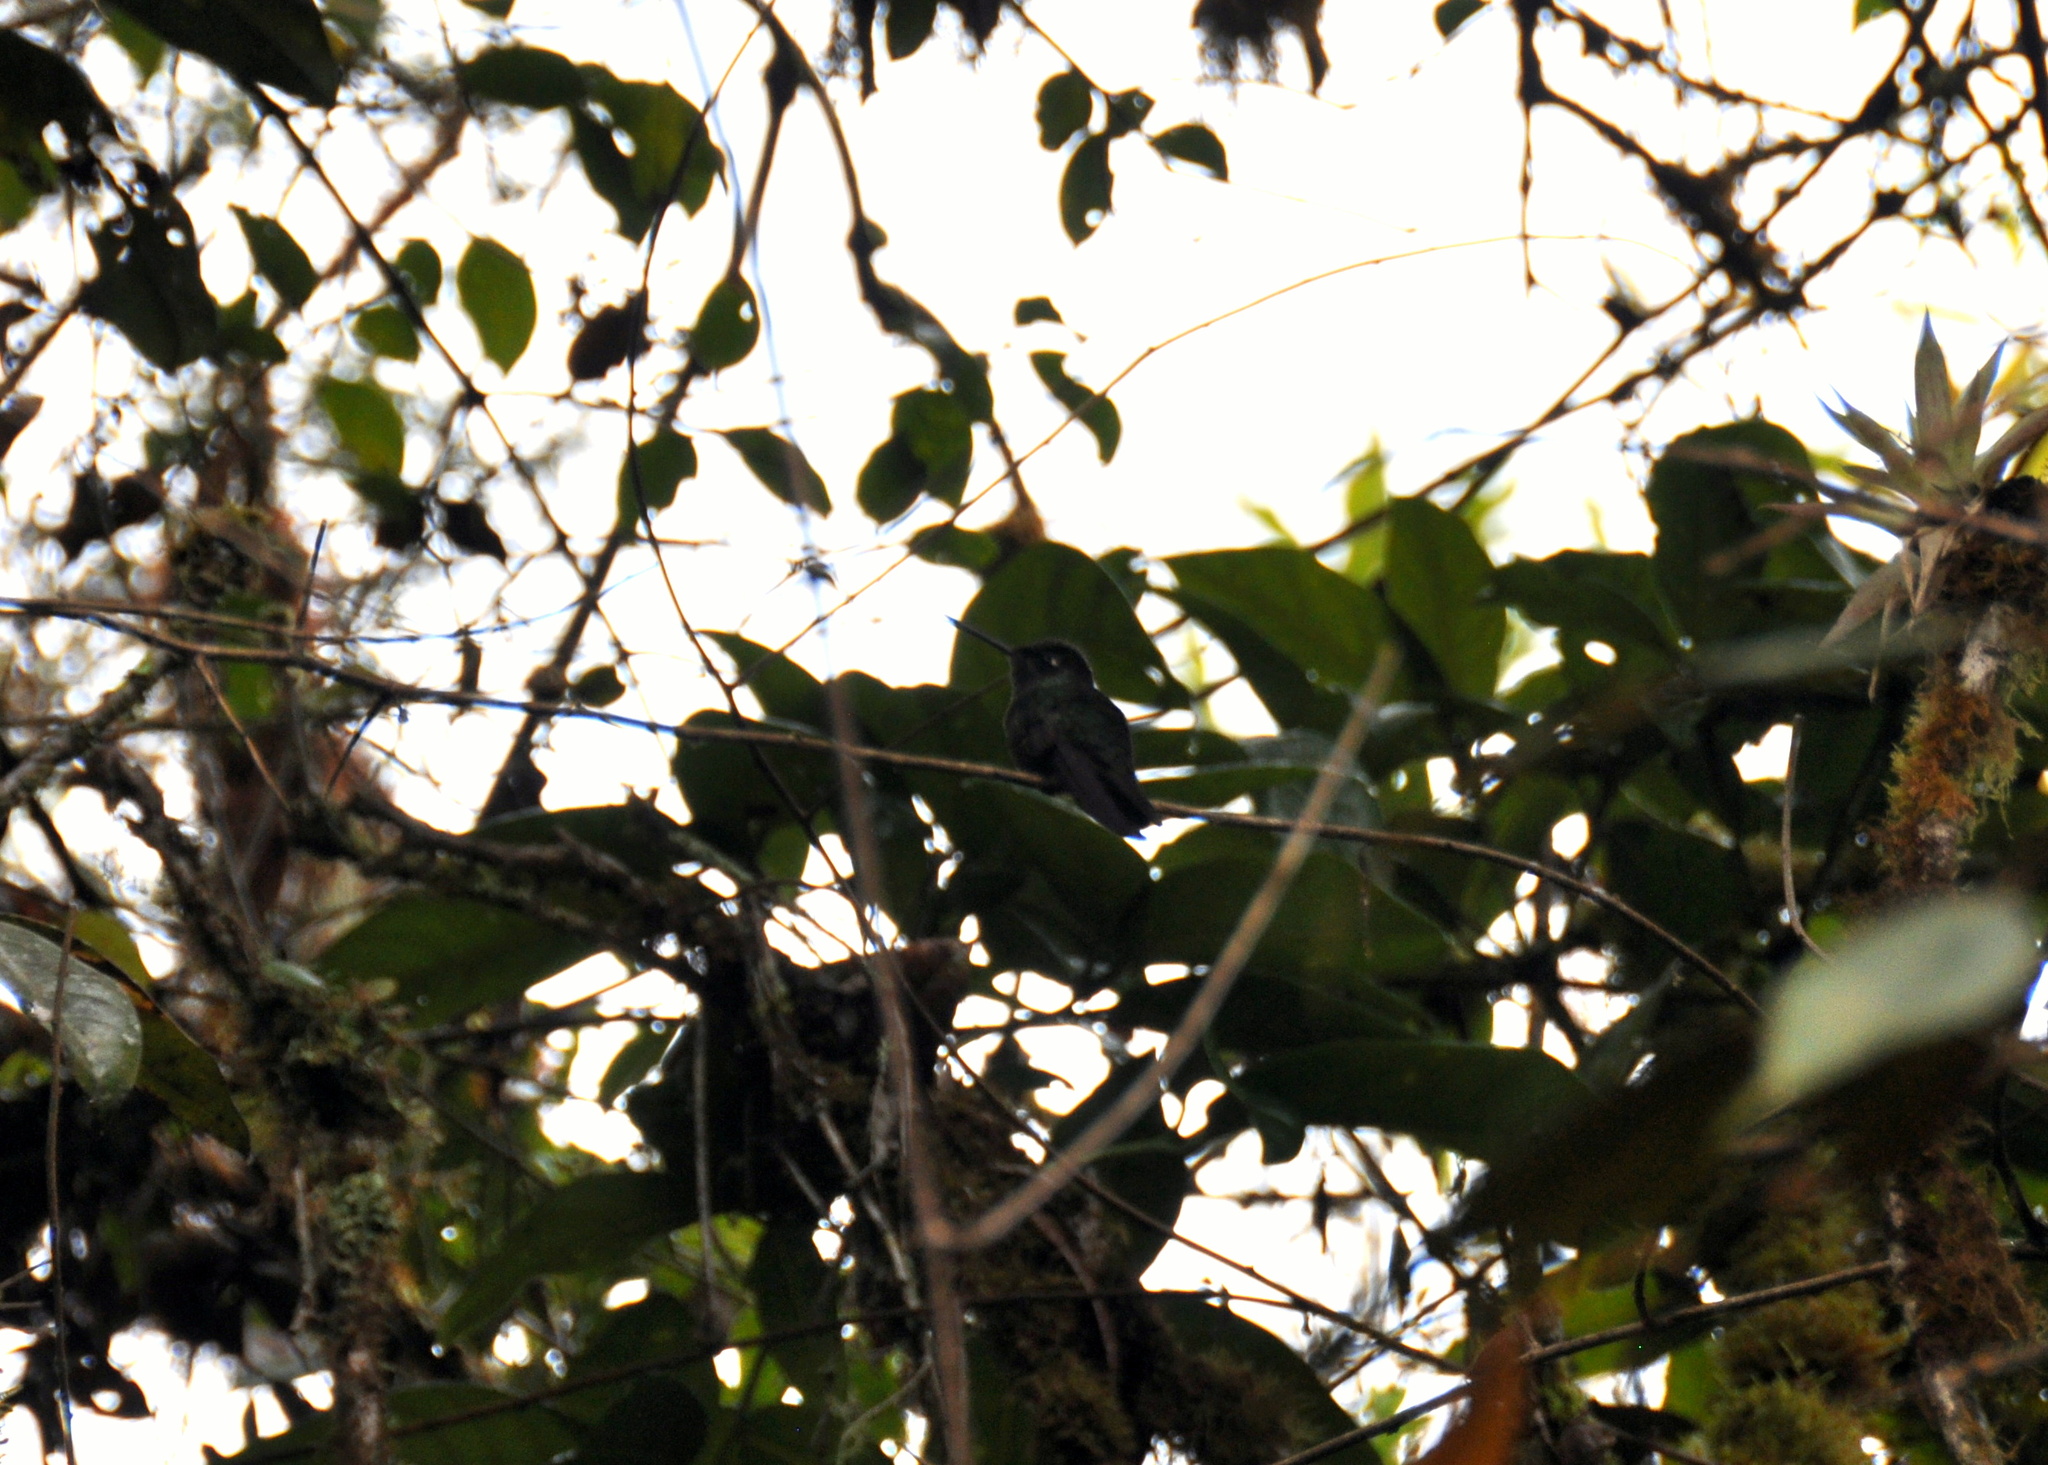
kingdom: Animalia
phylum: Chordata
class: Aves
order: Apodiformes
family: Trochilidae
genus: Eugenes
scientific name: Eugenes spectabilis
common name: Talamanca hummingbird
